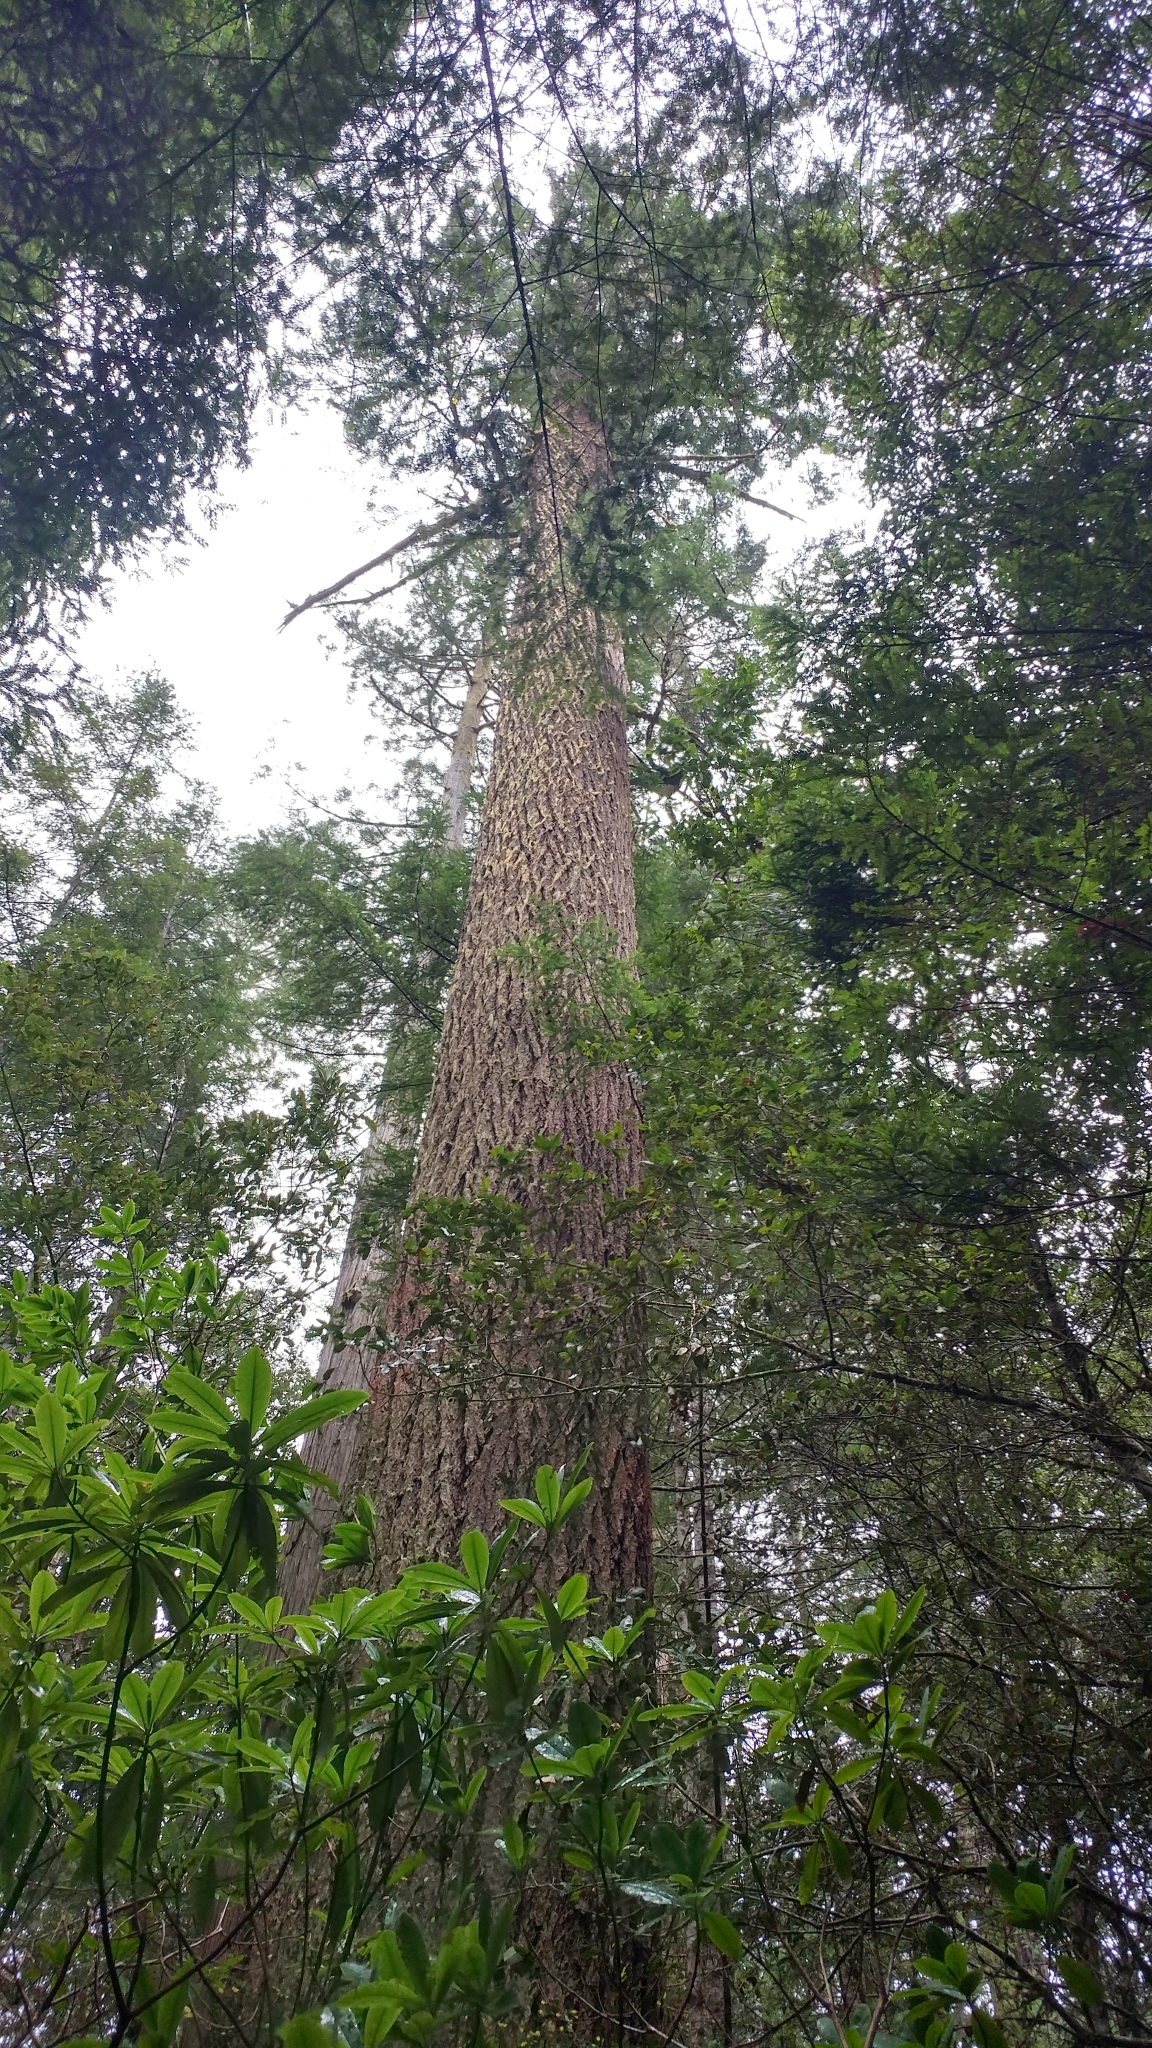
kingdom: Plantae
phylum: Tracheophyta
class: Pinopsida
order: Pinales
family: Pinaceae
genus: Pseudotsuga
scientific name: Pseudotsuga menziesii
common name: Douglas fir
